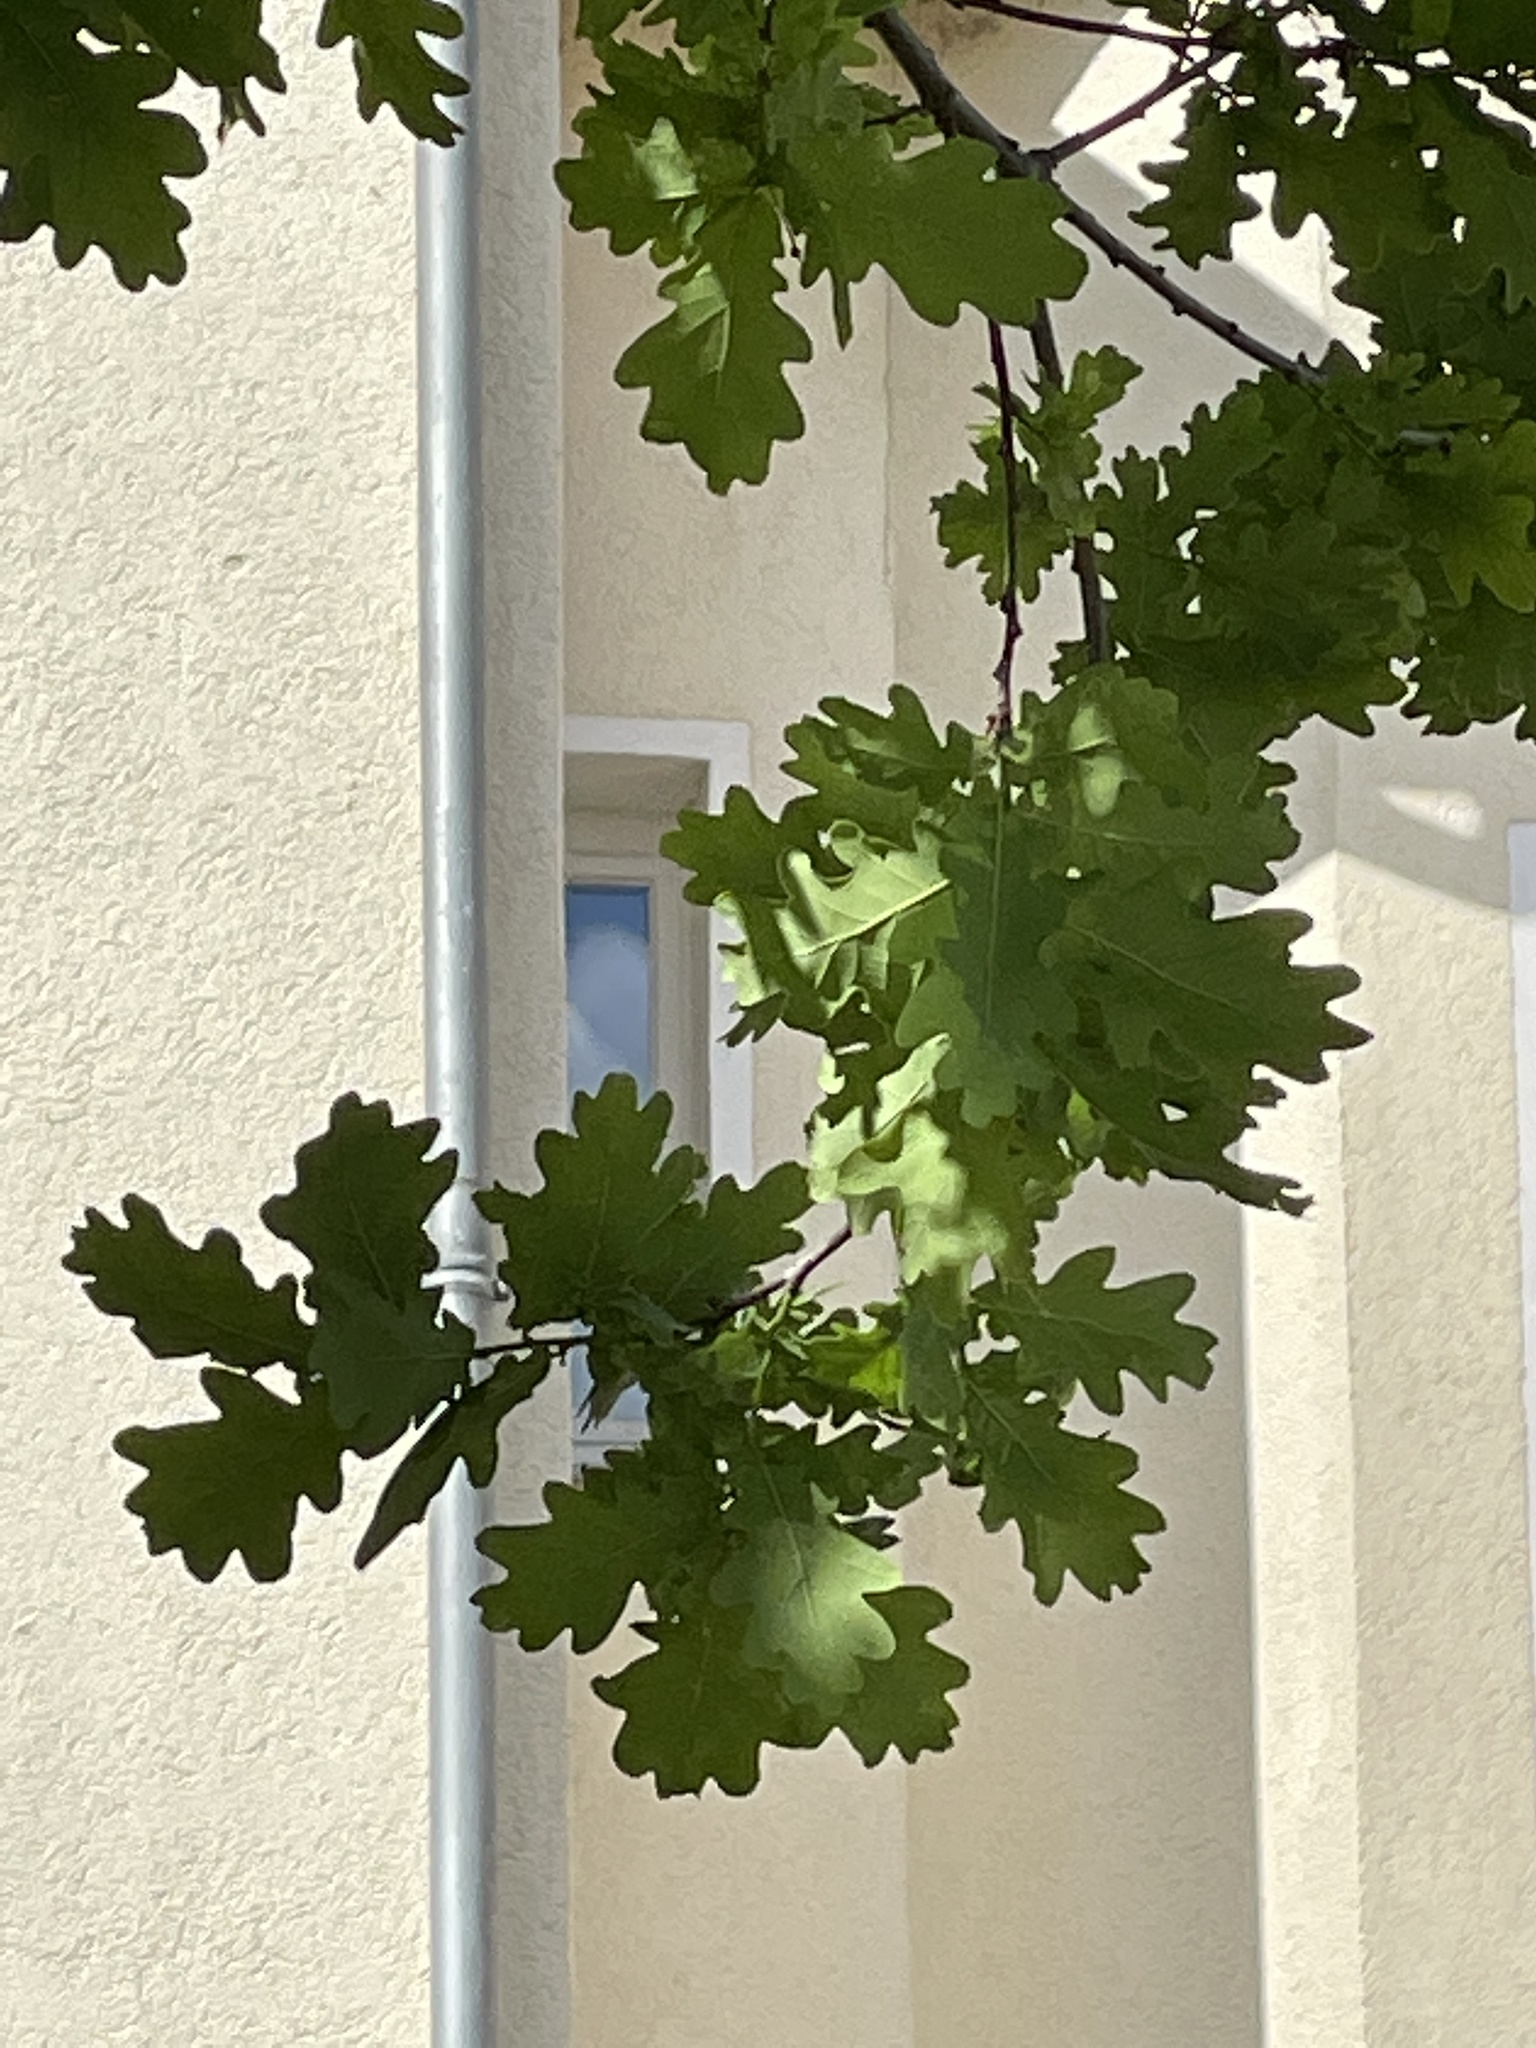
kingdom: Plantae
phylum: Tracheophyta
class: Magnoliopsida
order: Fagales
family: Fagaceae
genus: Quercus
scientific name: Quercus robur
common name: Pedunculate oak
